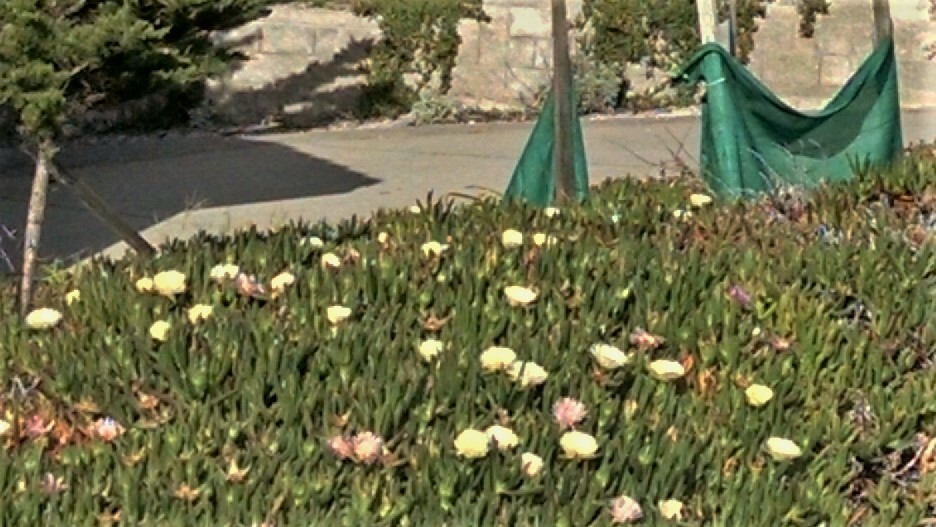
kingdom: Plantae
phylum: Tracheophyta
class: Magnoliopsida
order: Caryophyllales
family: Aizoaceae
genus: Carpobrotus
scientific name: Carpobrotus edulis
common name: Hottentot-fig
